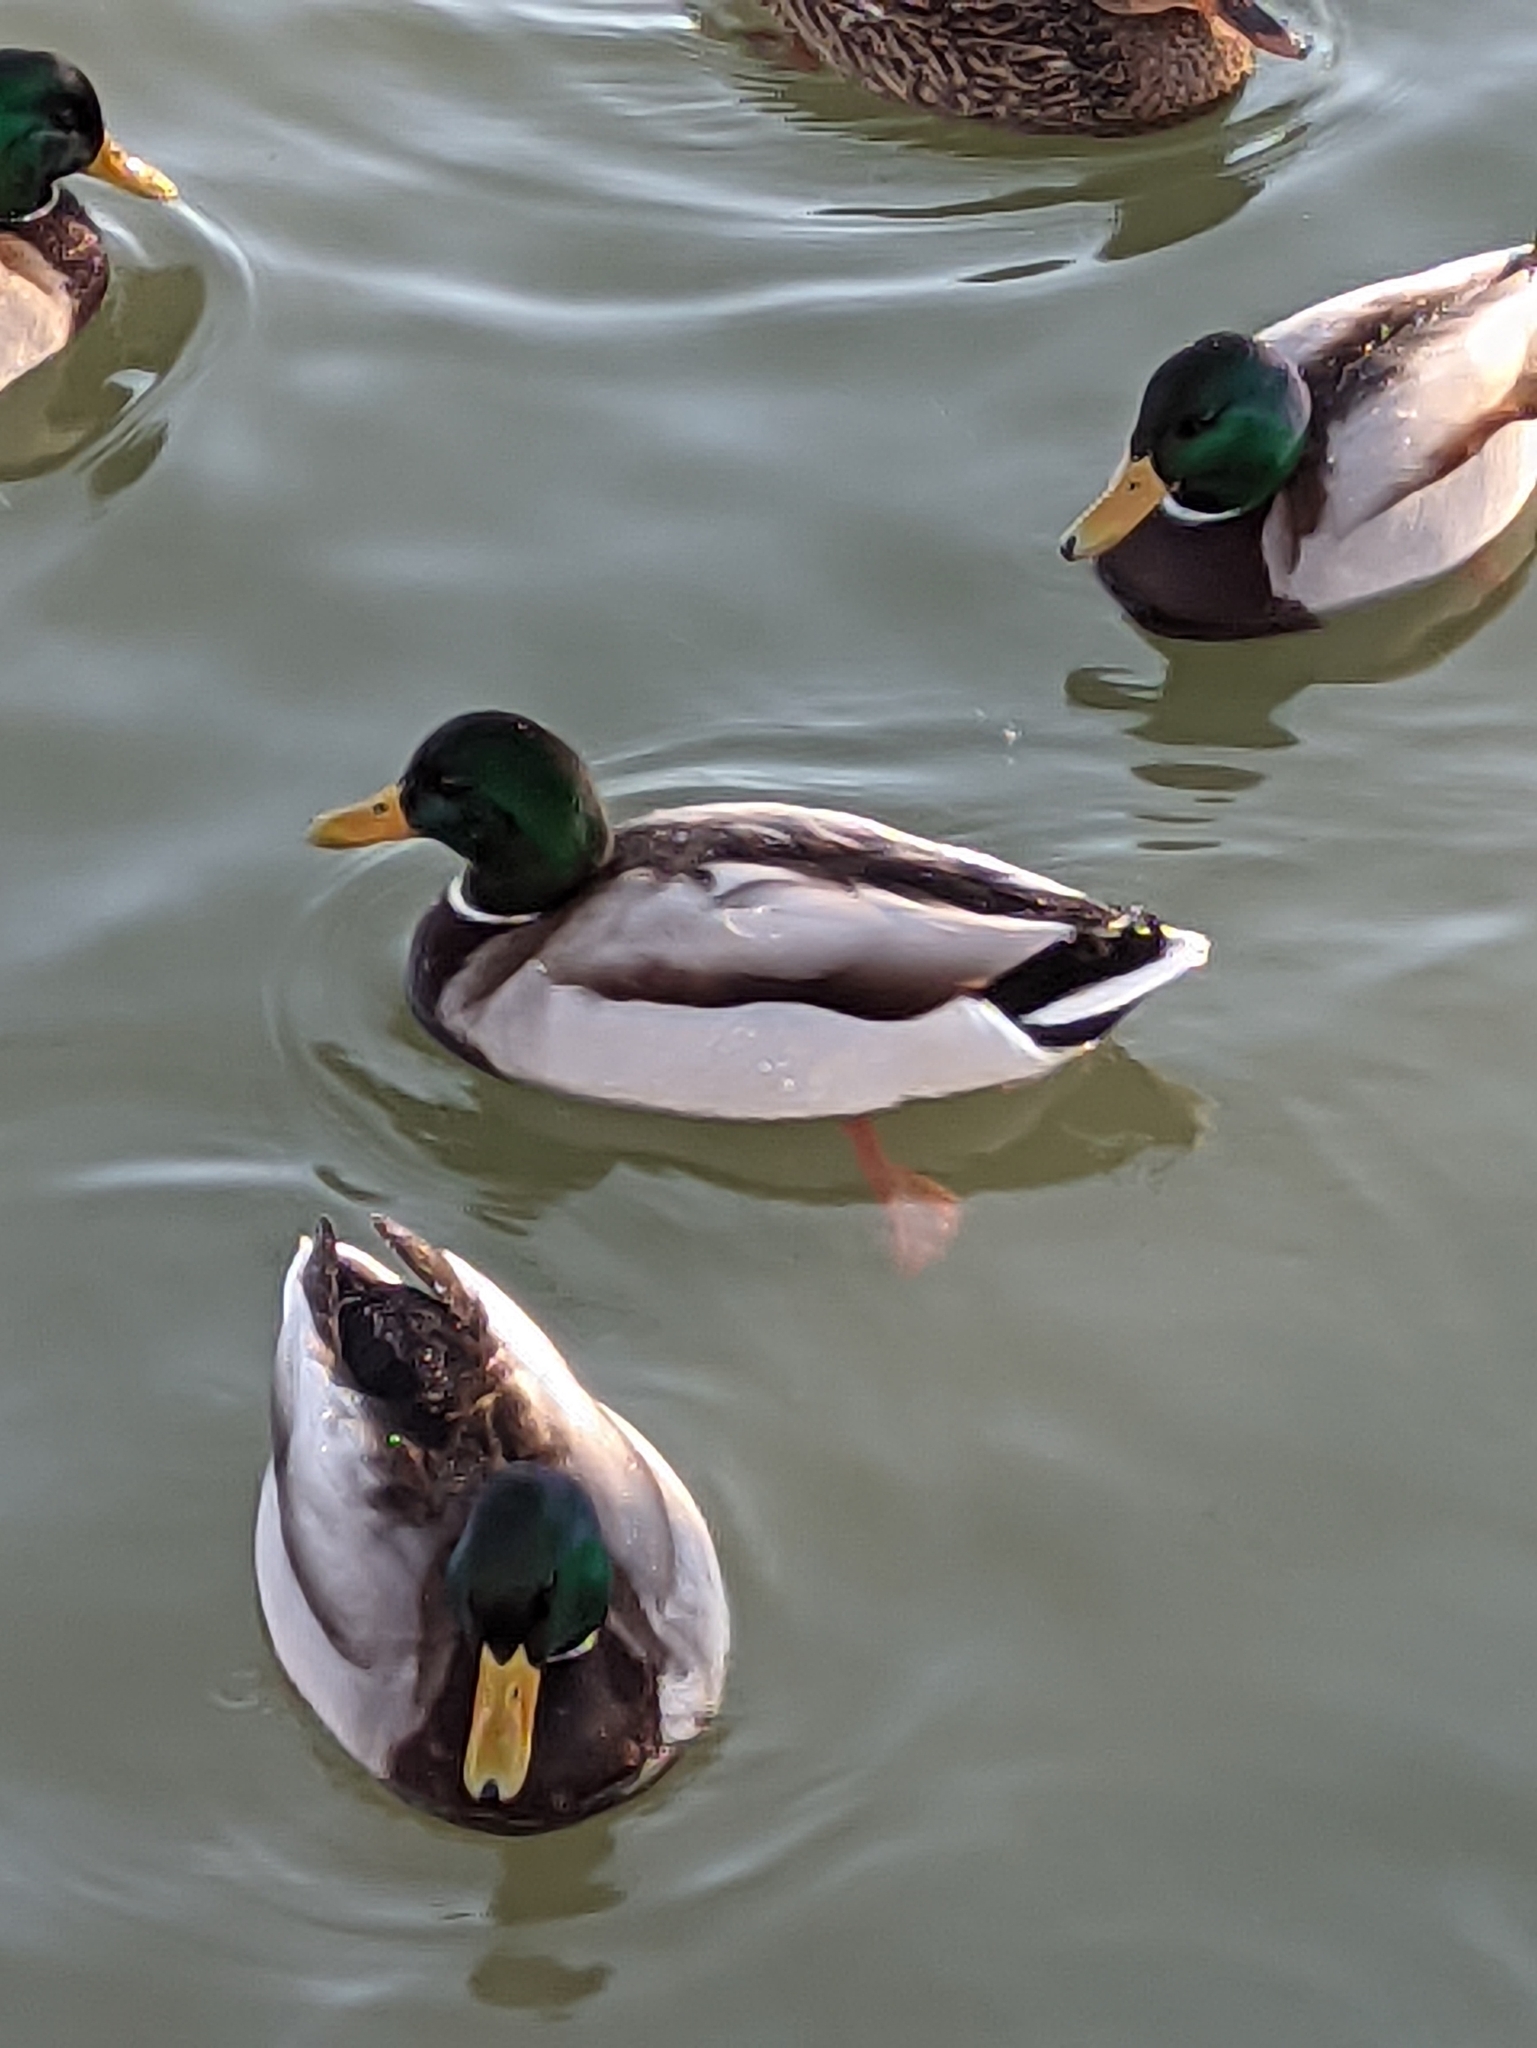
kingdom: Animalia
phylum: Chordata
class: Aves
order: Anseriformes
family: Anatidae
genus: Anas
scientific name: Anas platyrhynchos
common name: Mallard
